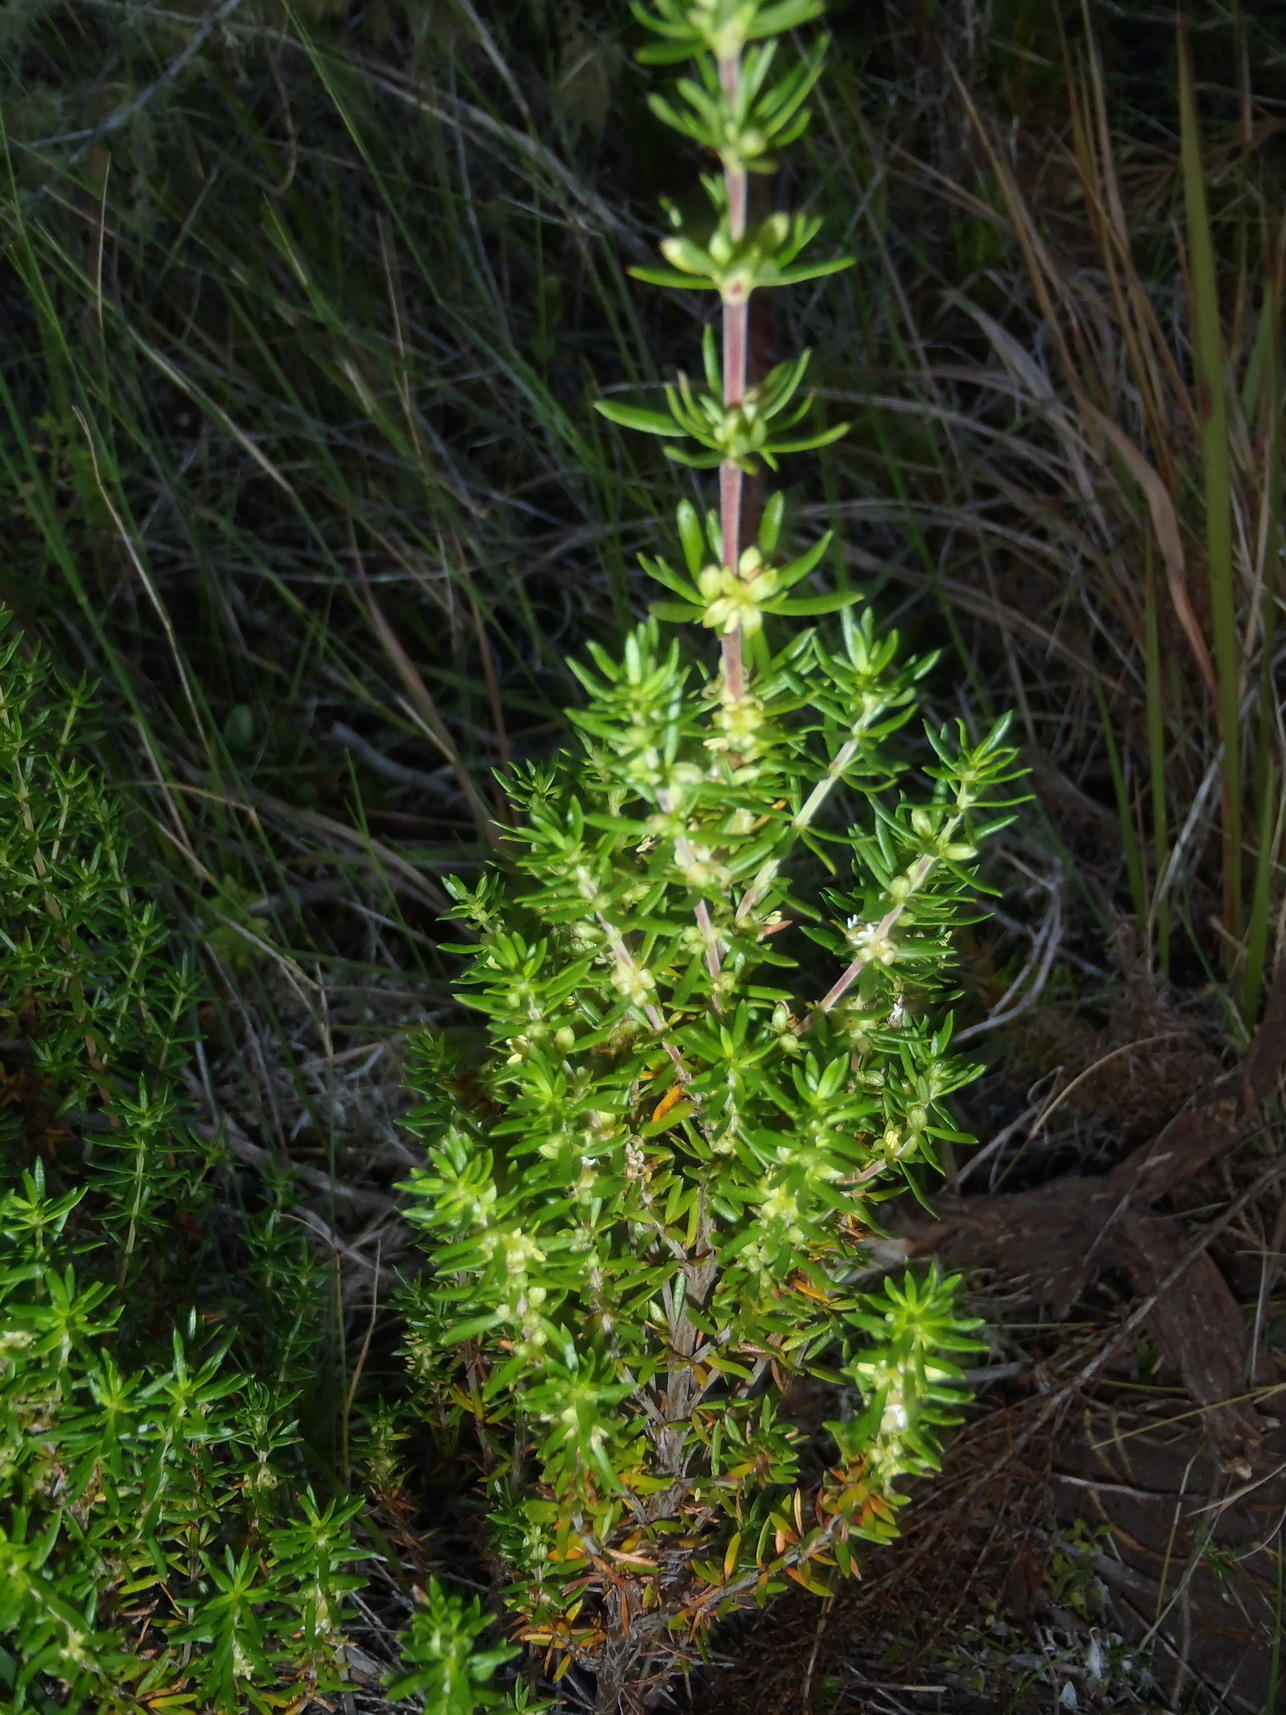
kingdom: Plantae
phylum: Tracheophyta
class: Magnoliopsida
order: Gentianales
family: Rubiaceae
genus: Anthospermum
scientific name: Anthospermum aethiopicum
